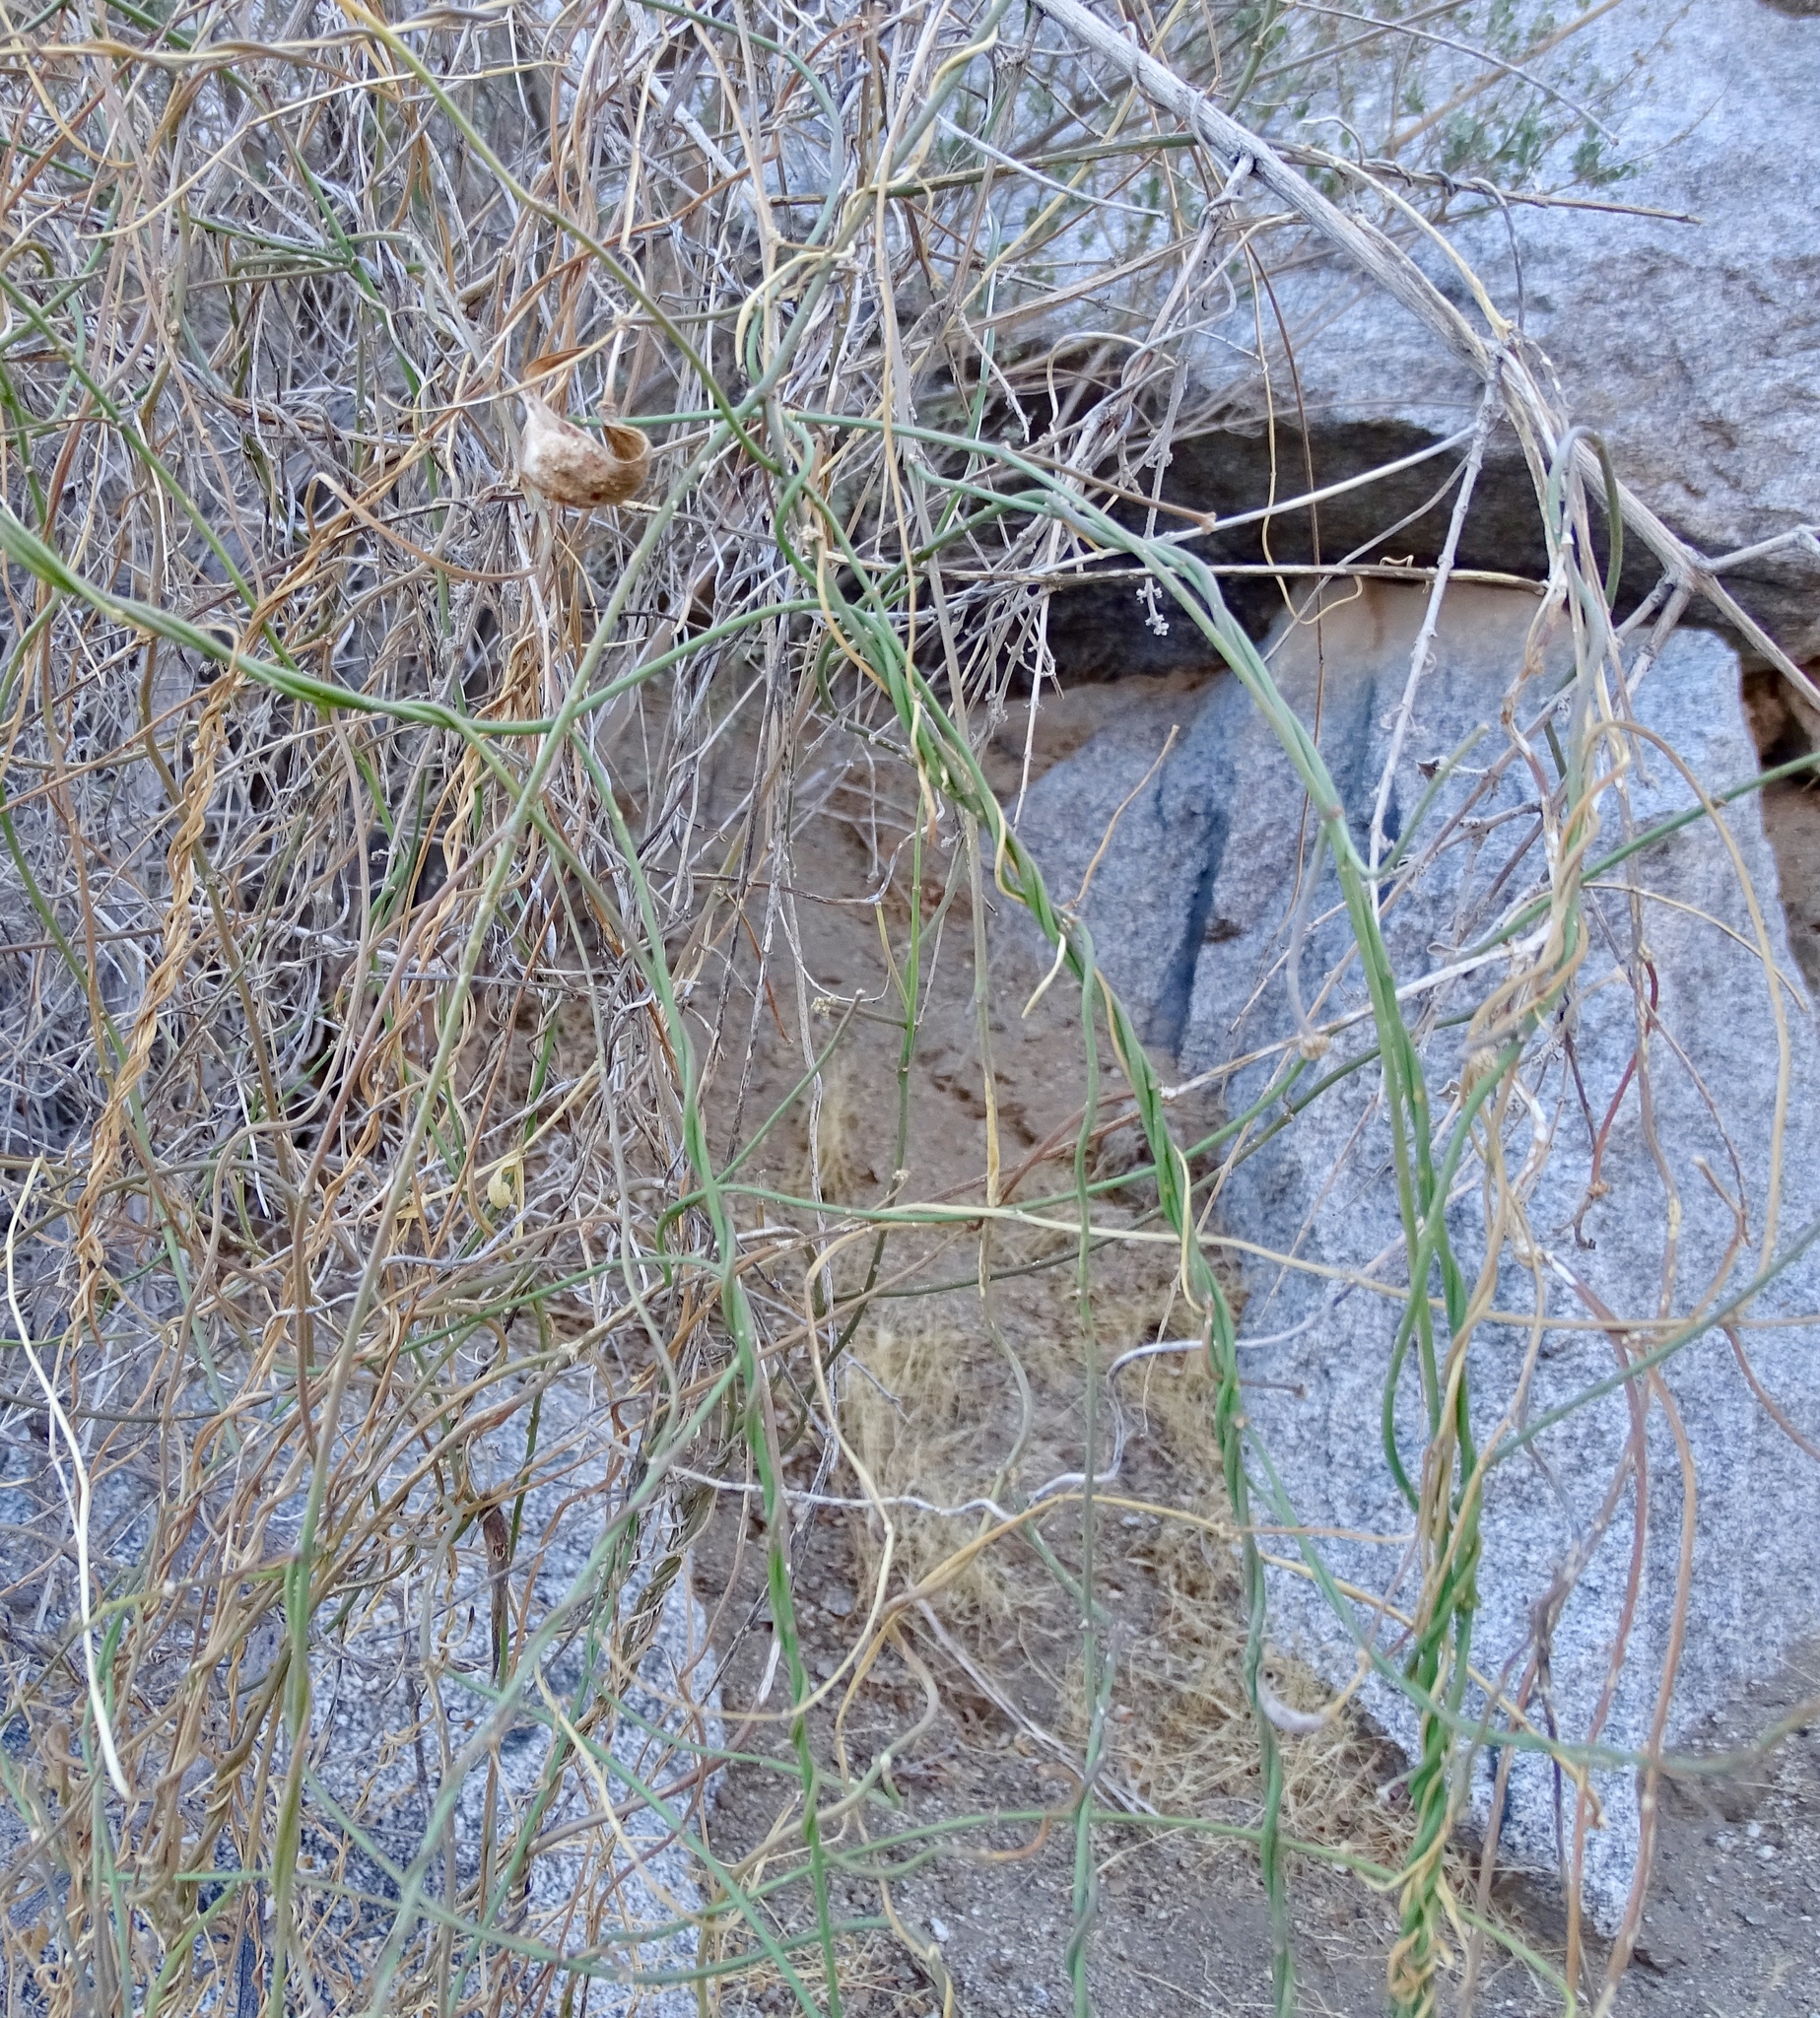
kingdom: Plantae
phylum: Tracheophyta
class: Magnoliopsida
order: Gentianales
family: Apocynaceae
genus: Funastrum
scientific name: Funastrum heterophyllum
